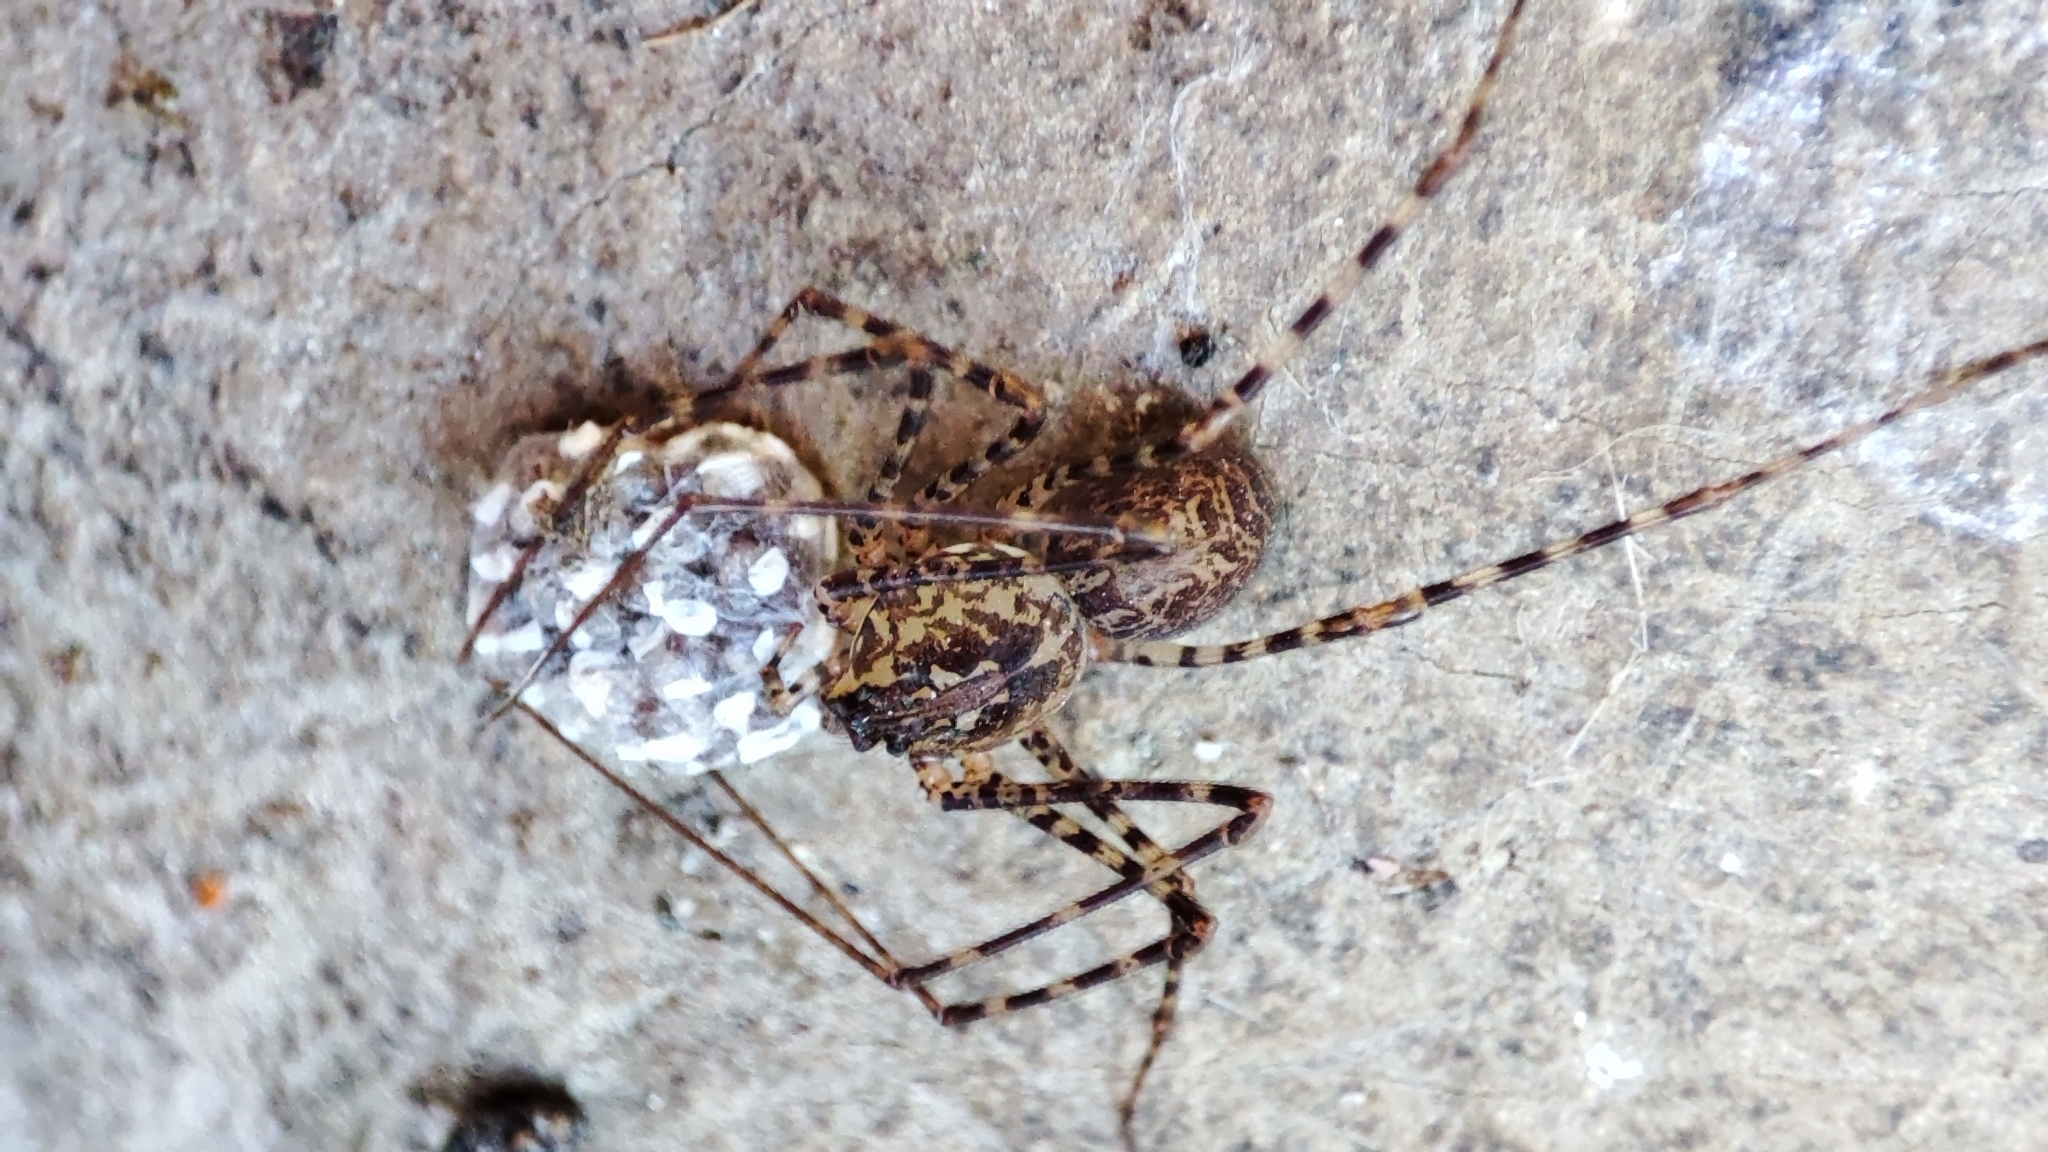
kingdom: Animalia
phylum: Arthropoda
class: Arachnida
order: Araneae
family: Scytodidae
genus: Scytodes
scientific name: Scytodes globula
